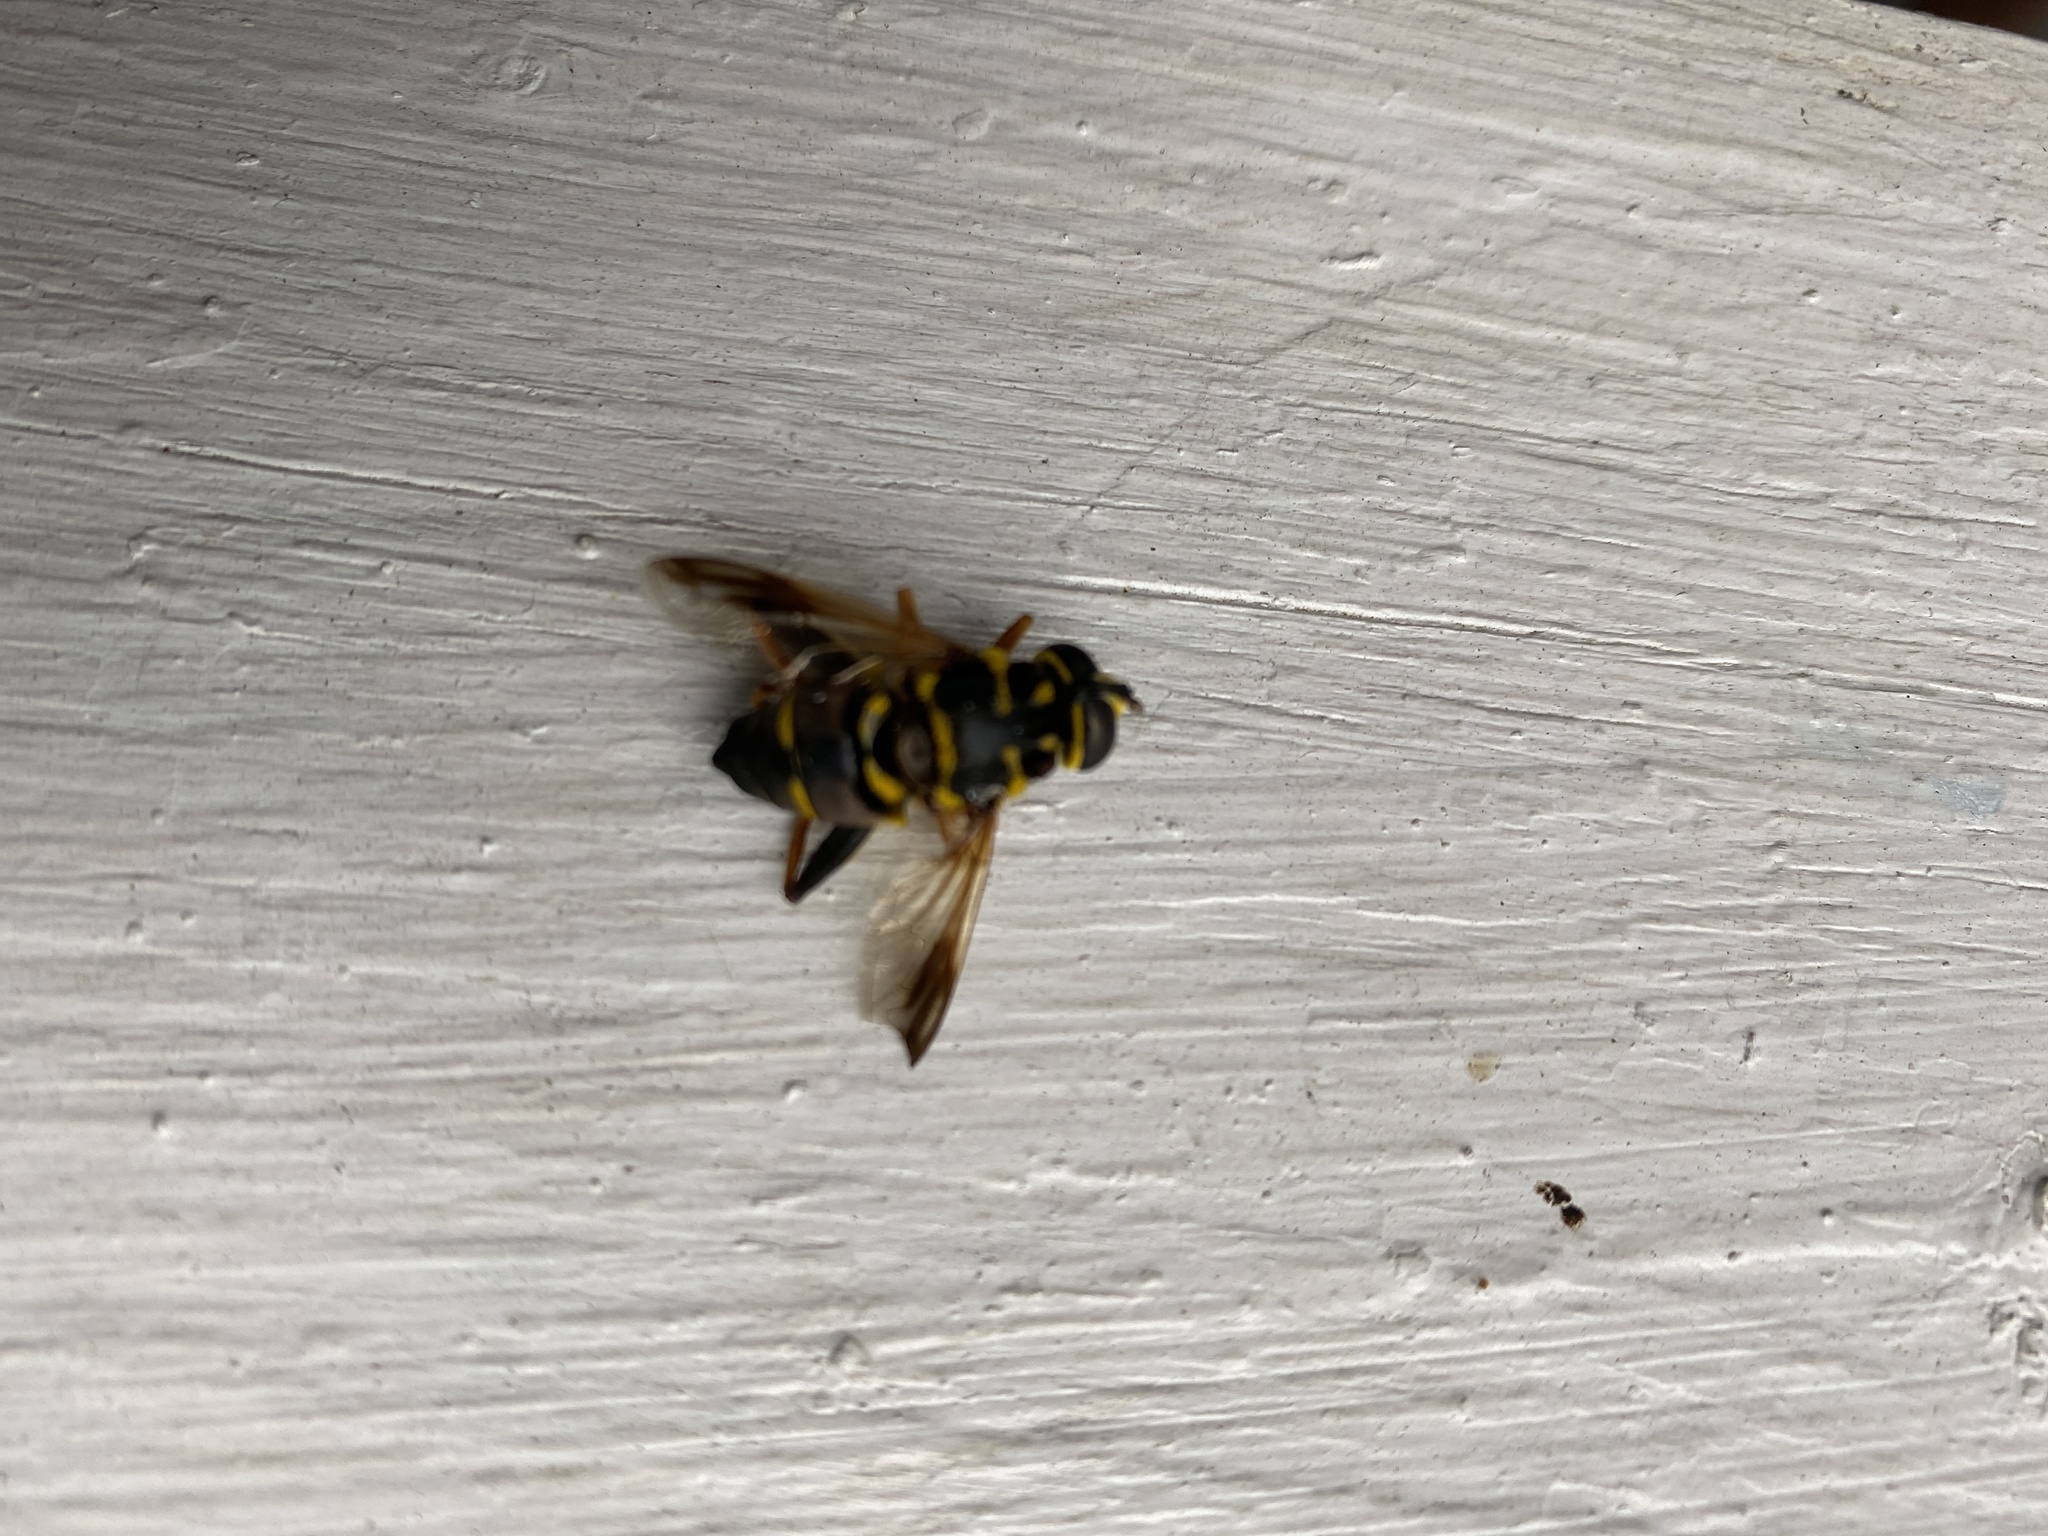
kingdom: Animalia
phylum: Arthropoda
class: Insecta
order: Diptera
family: Syrphidae
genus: Meromacrus
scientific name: Meromacrus acutus
